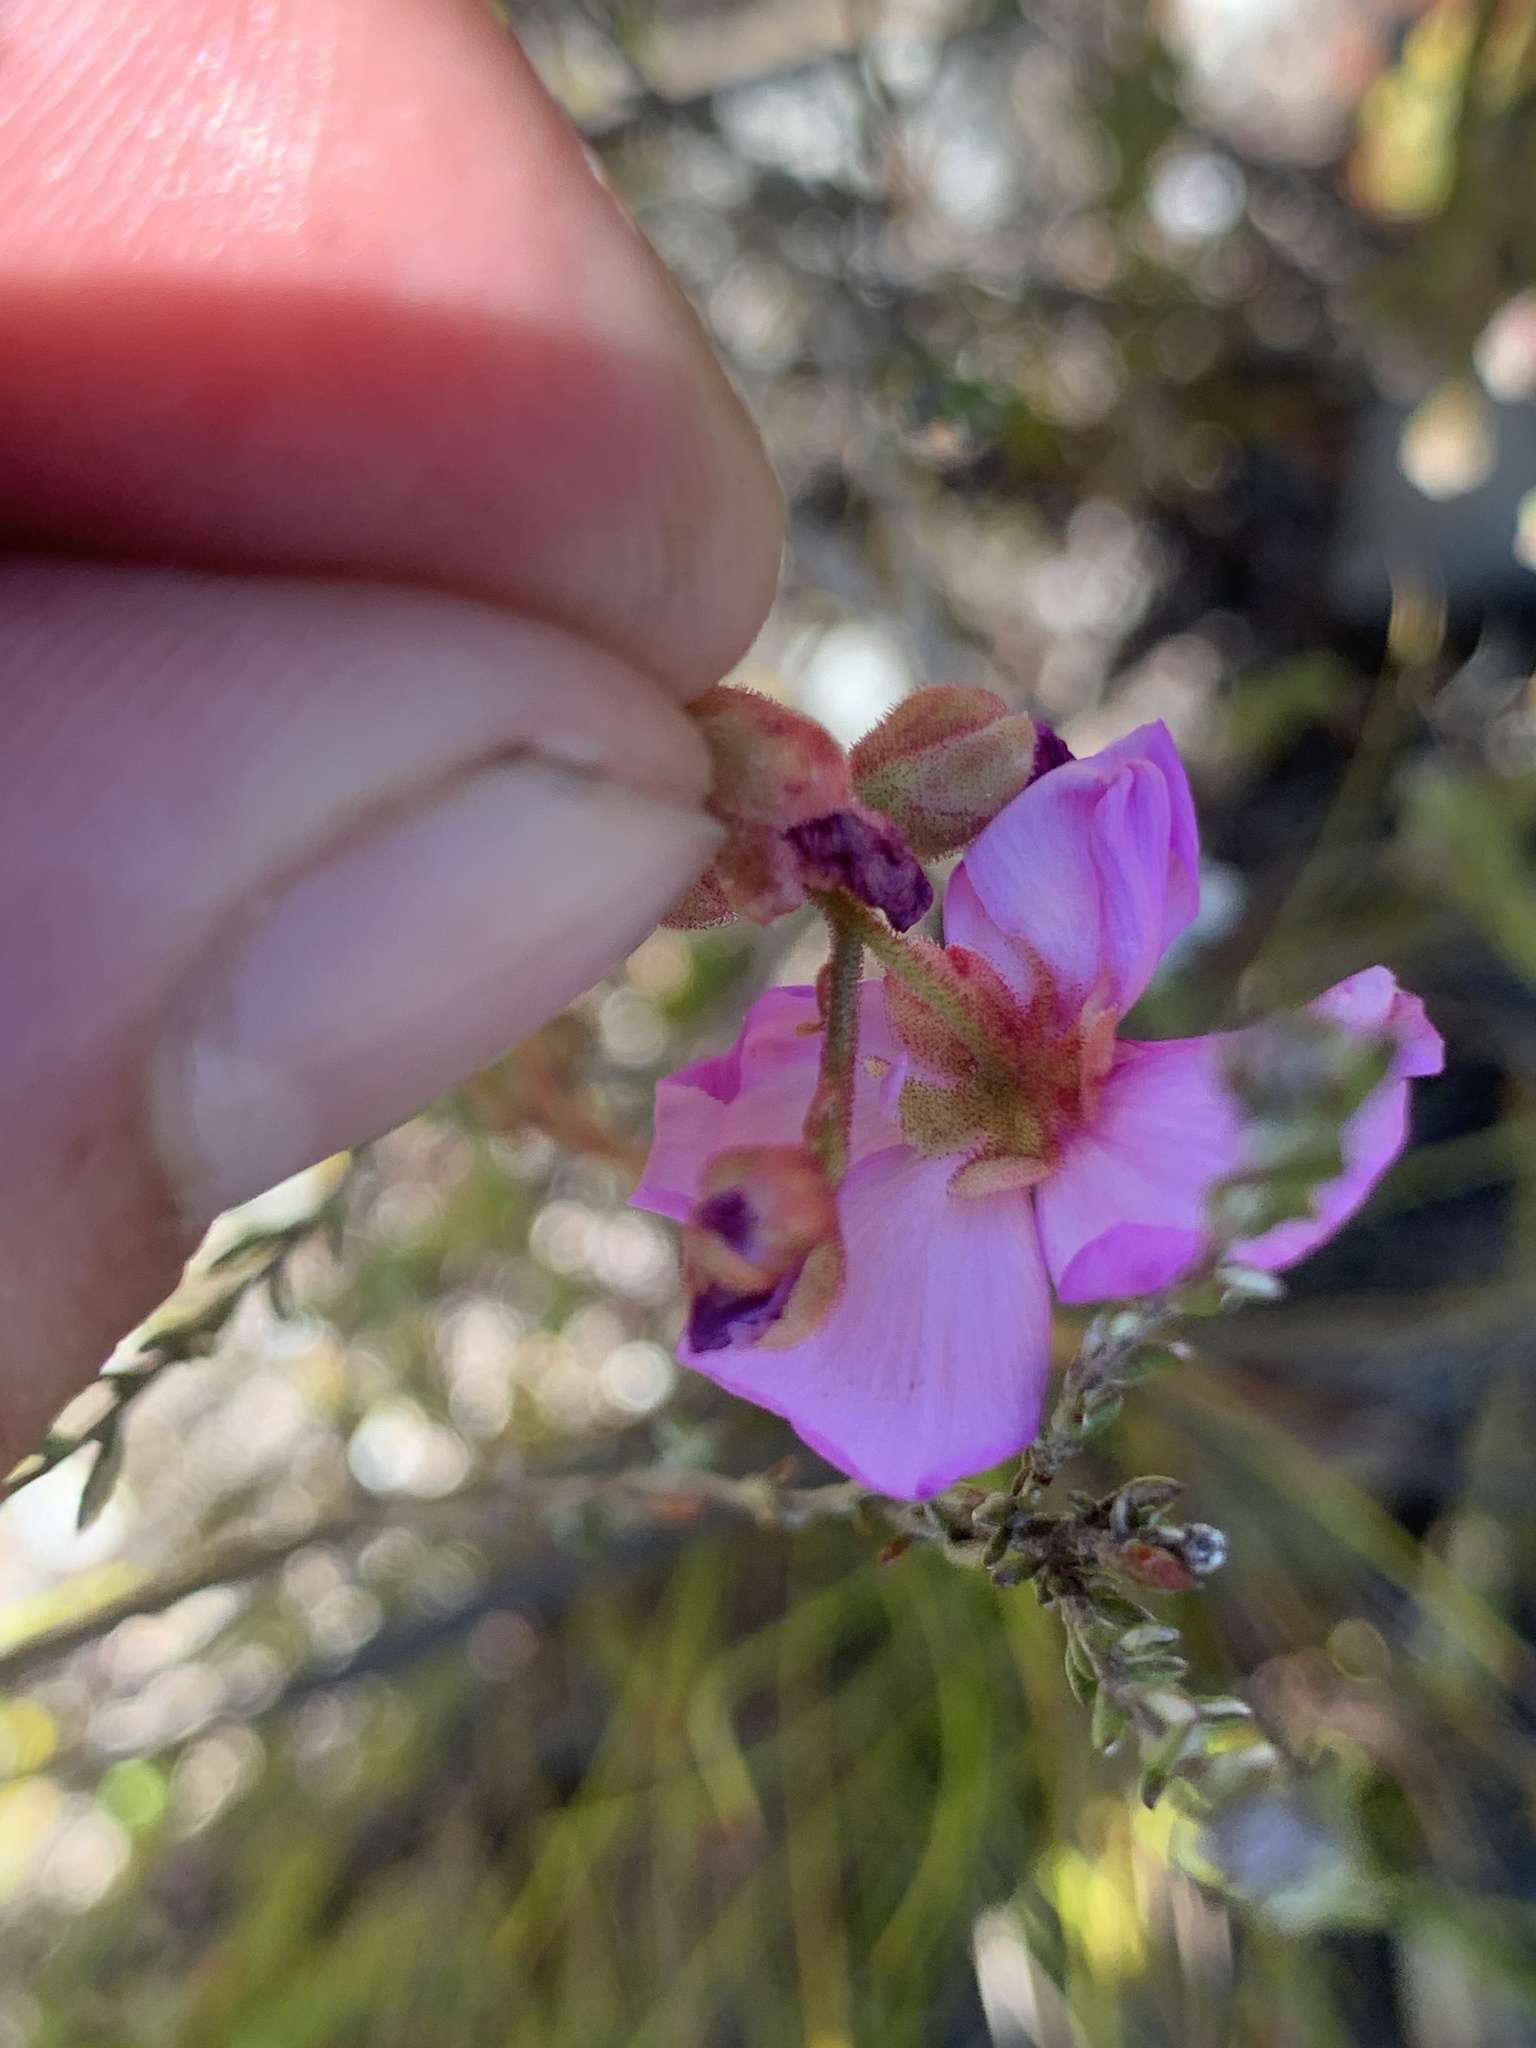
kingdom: Plantae
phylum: Tracheophyta
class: Magnoliopsida
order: Caryophyllales
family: Droseraceae
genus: Drosera
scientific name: Drosera xerophila
